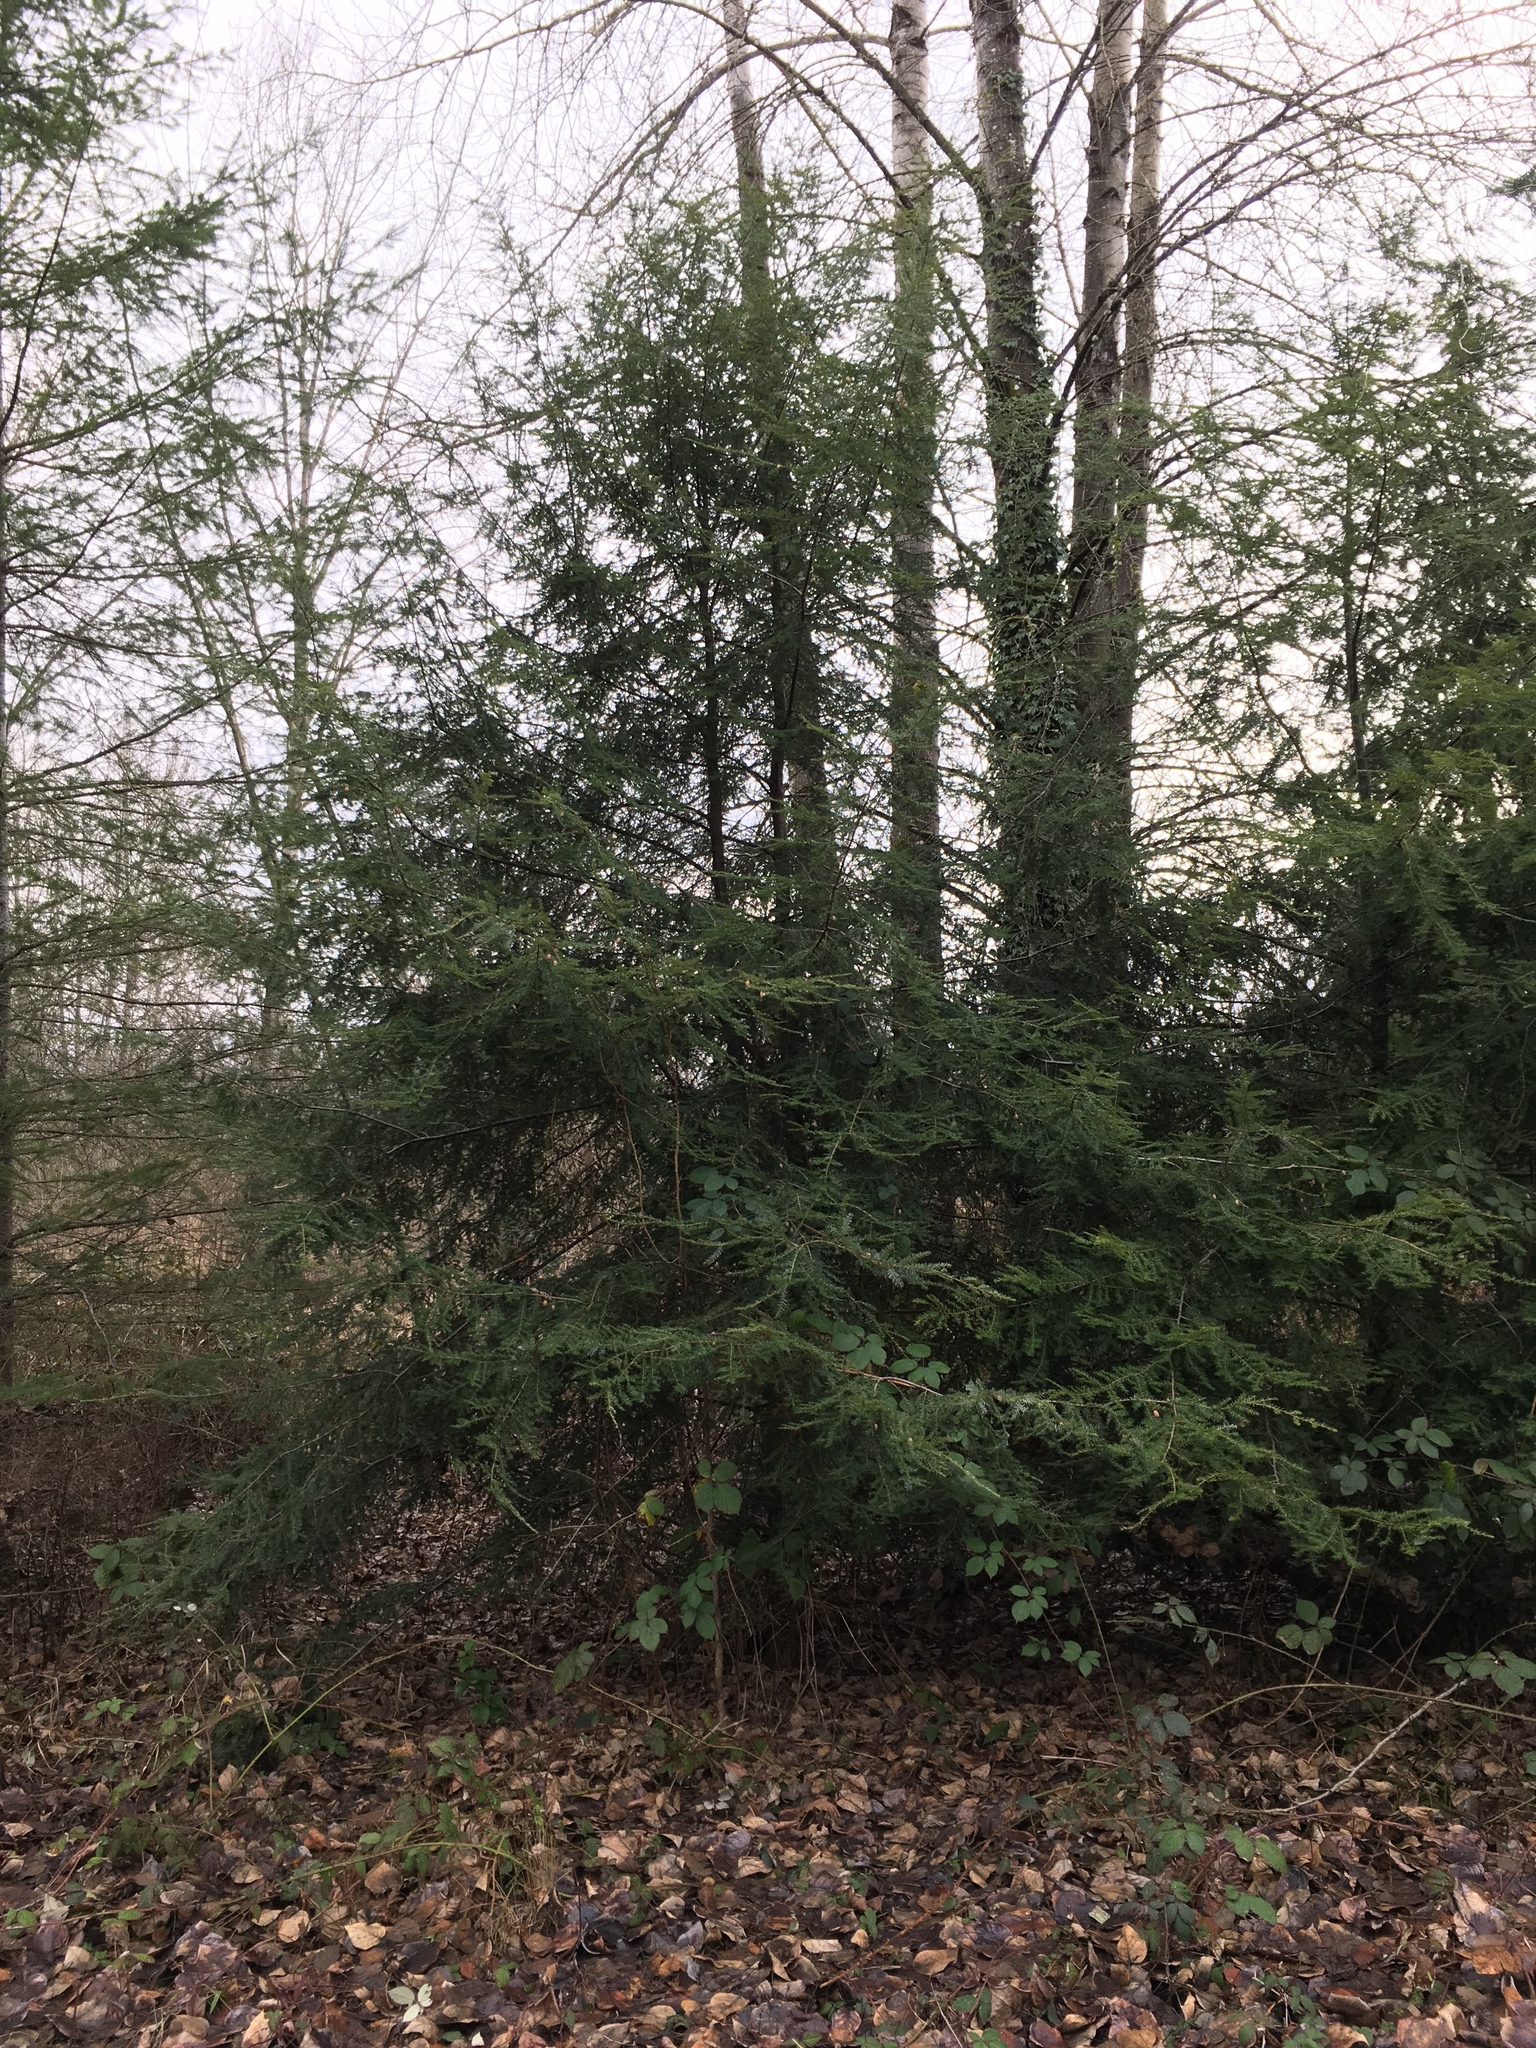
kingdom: Plantae
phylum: Tracheophyta
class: Pinopsida
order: Pinales
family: Pinaceae
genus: Tsuga
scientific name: Tsuga heterophylla
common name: Western hemlock
